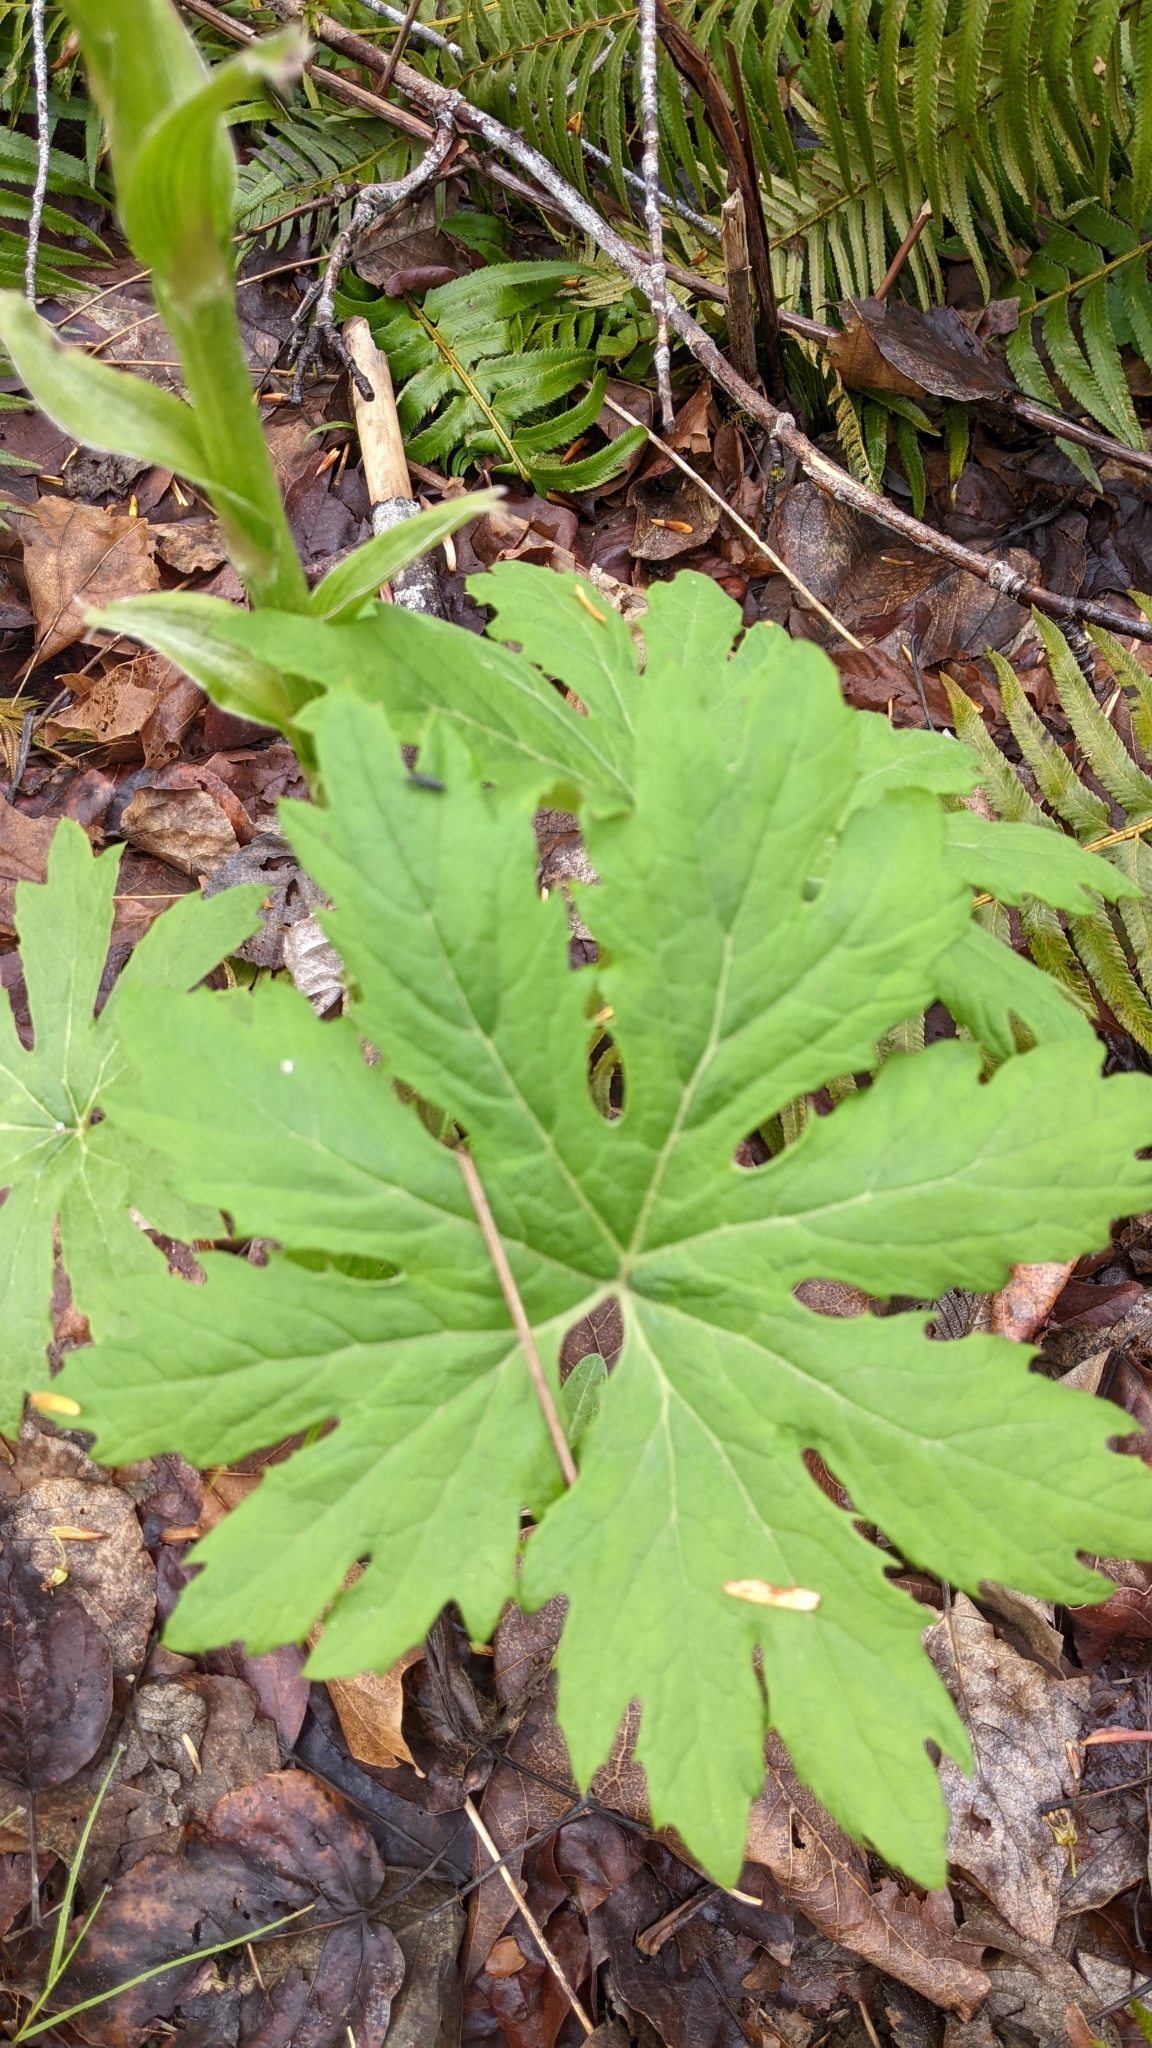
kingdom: Plantae
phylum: Tracheophyta
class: Magnoliopsida
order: Asterales
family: Asteraceae
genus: Petasites
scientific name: Petasites frigidus
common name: Arctic butterbur
